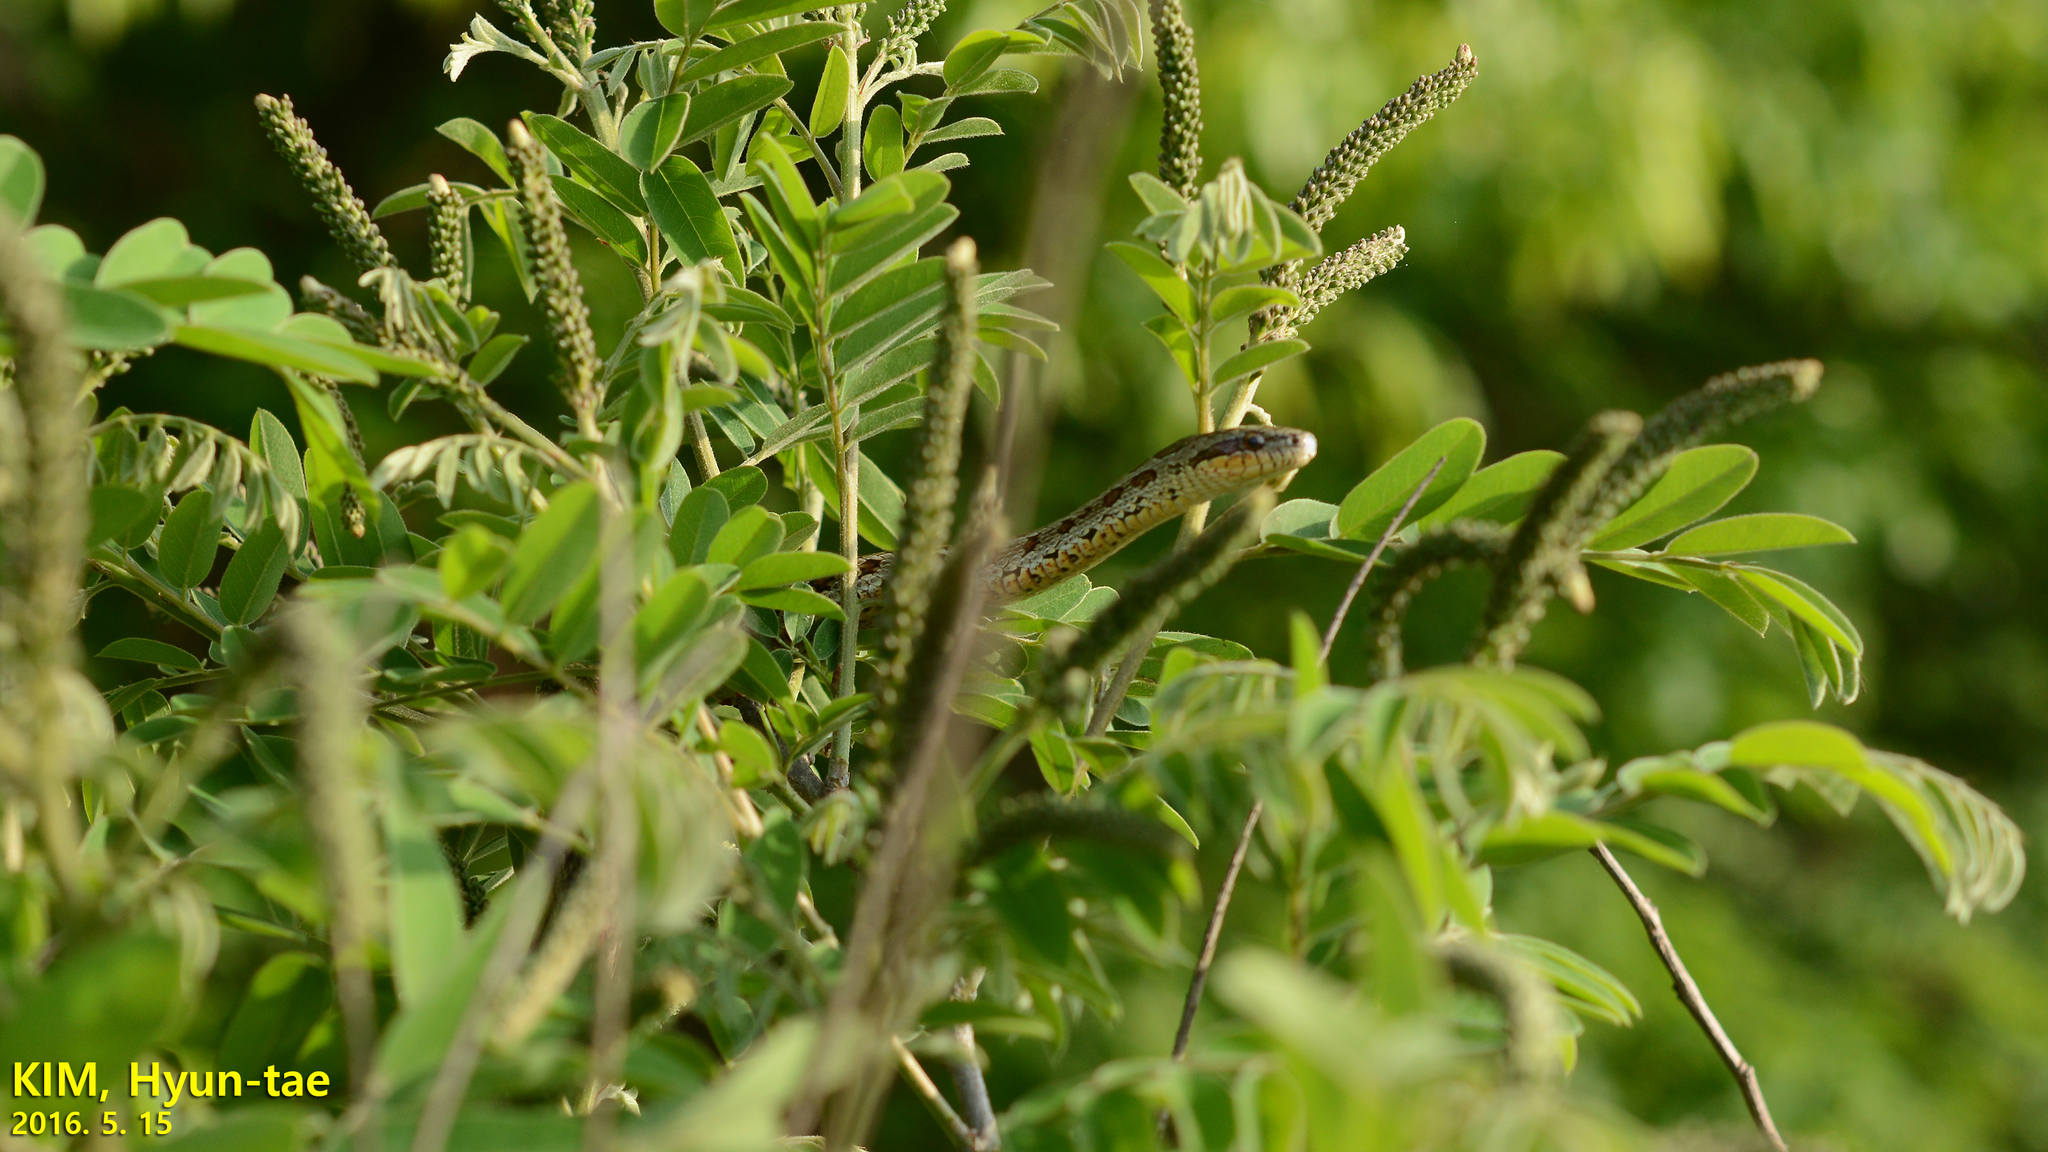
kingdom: Animalia
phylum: Chordata
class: Squamata
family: Colubridae
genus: Elaphe
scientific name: Elaphe dione
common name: Dione ratsnake
